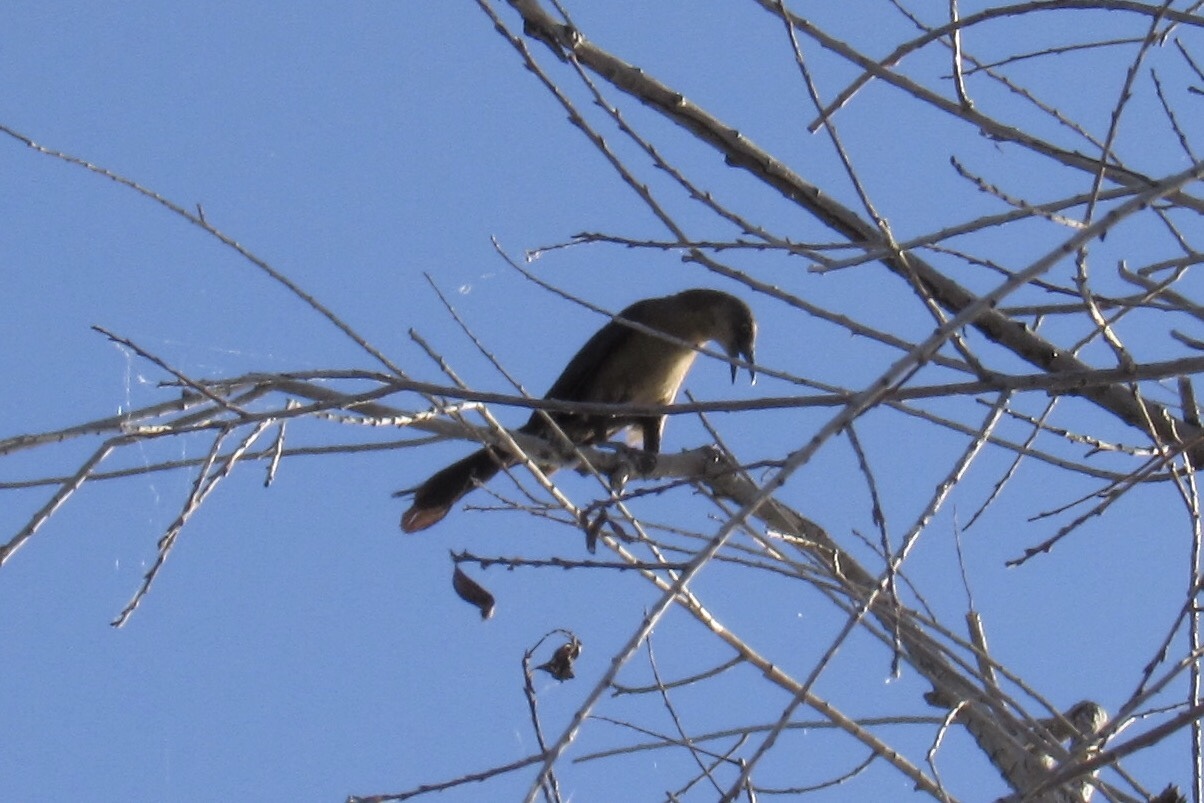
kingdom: Animalia
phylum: Chordata
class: Aves
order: Passeriformes
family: Icteridae
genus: Quiscalus
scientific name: Quiscalus mexicanus
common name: Great-tailed grackle
